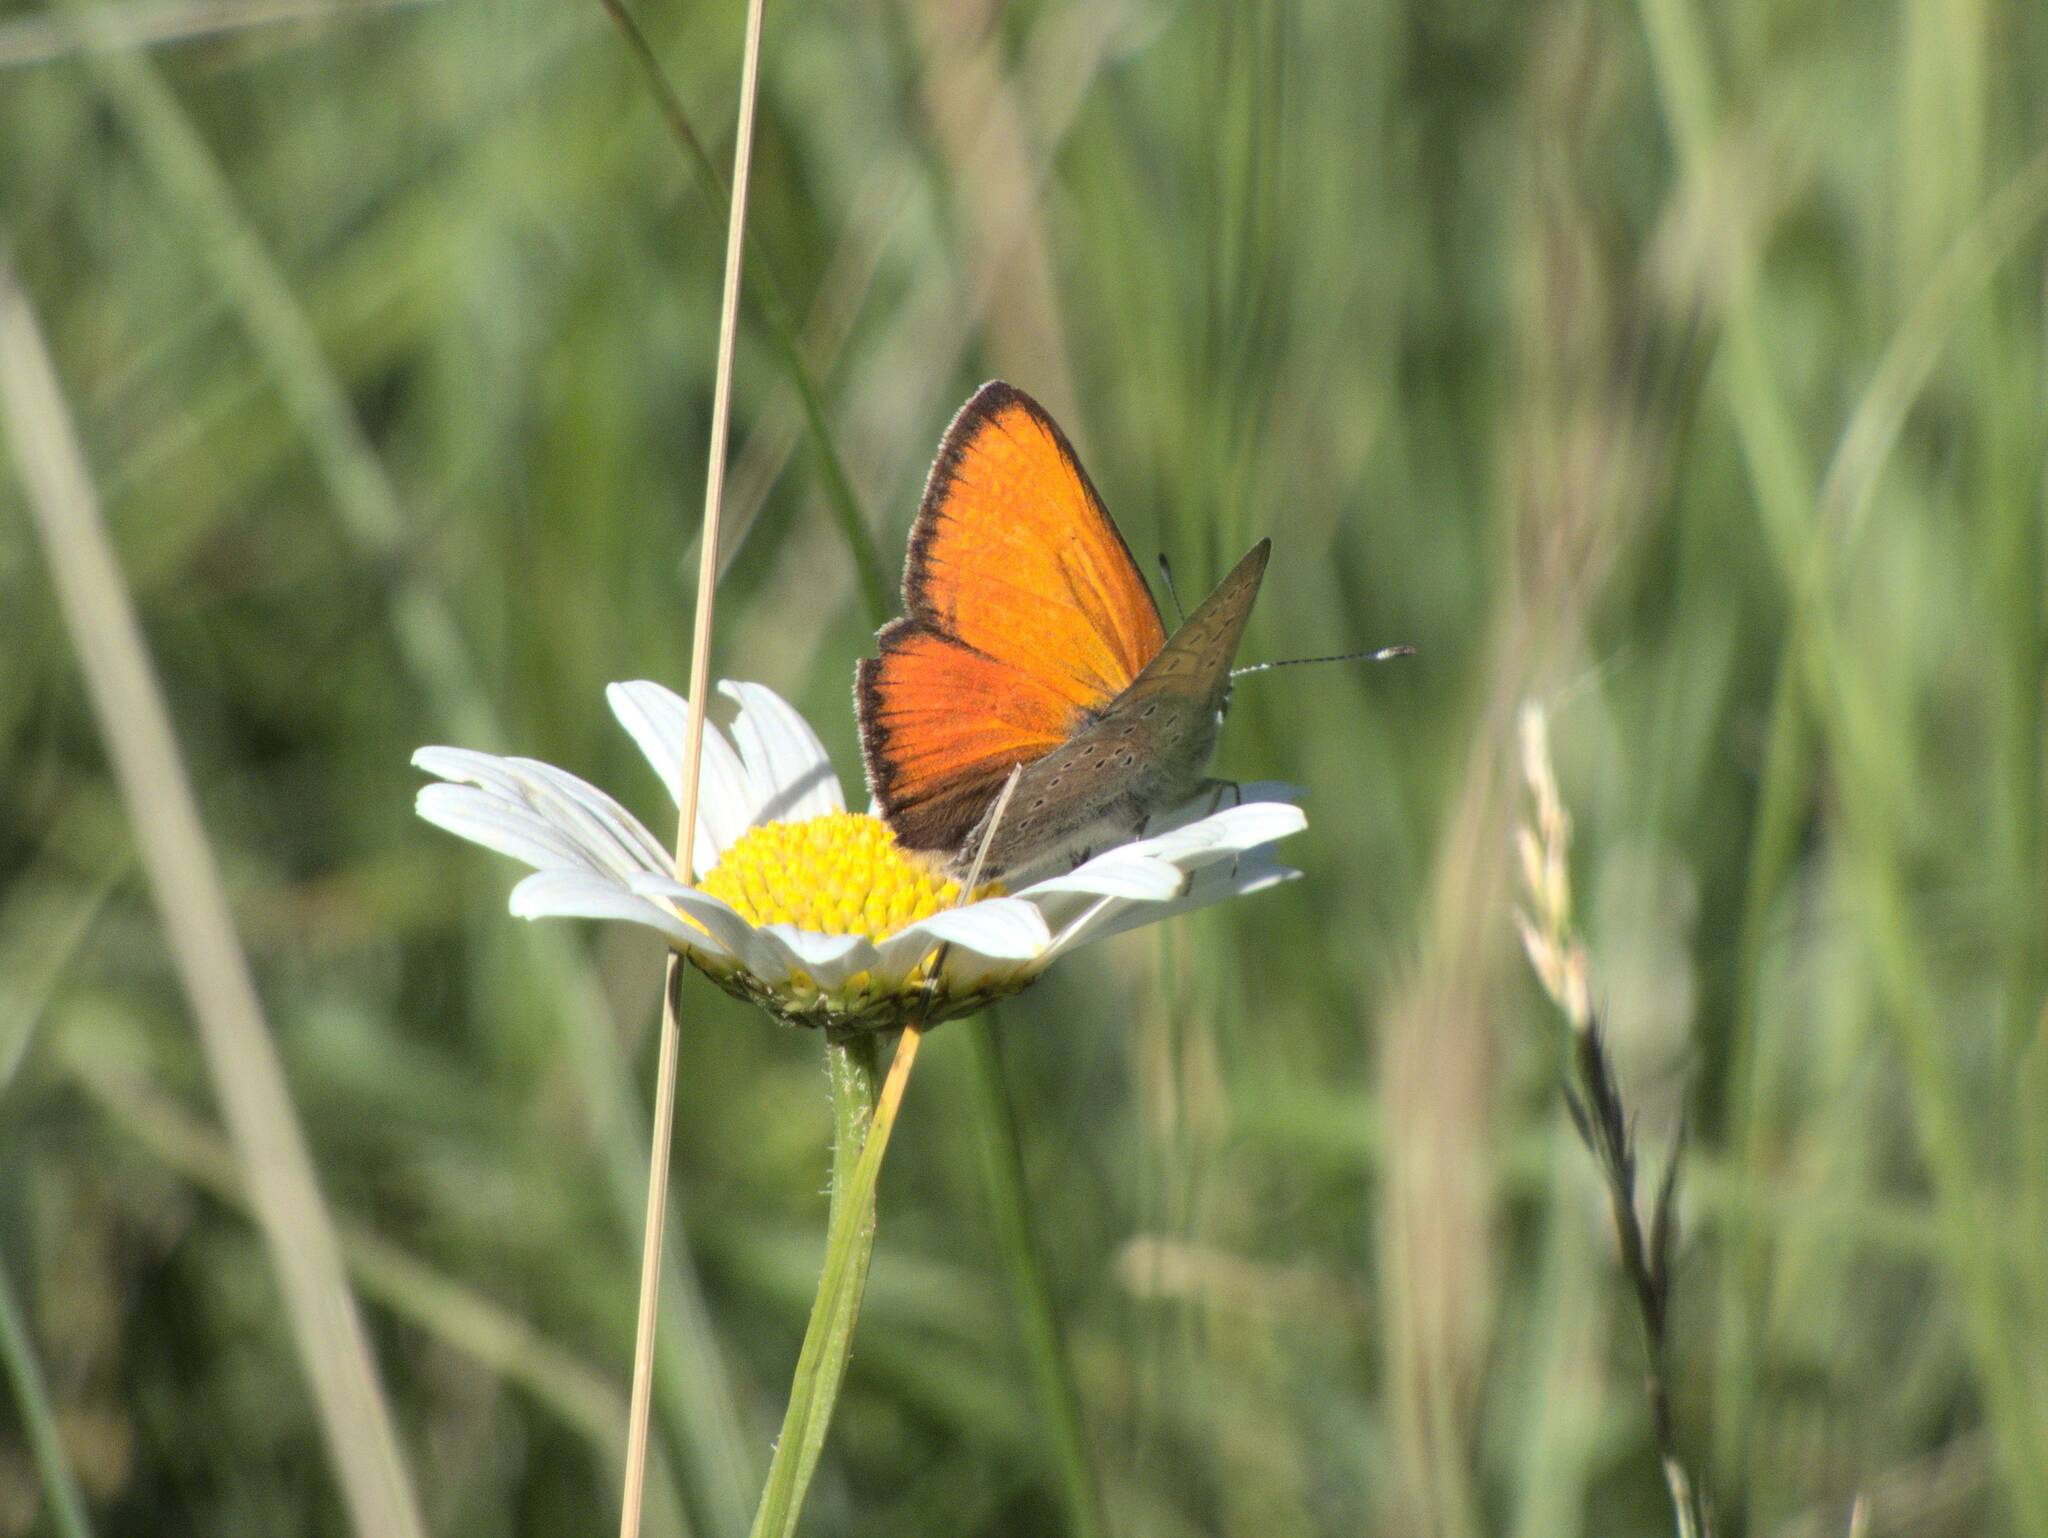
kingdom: Animalia
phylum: Arthropoda
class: Insecta
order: Lepidoptera
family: Lycaenidae
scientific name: Lycaenidae
